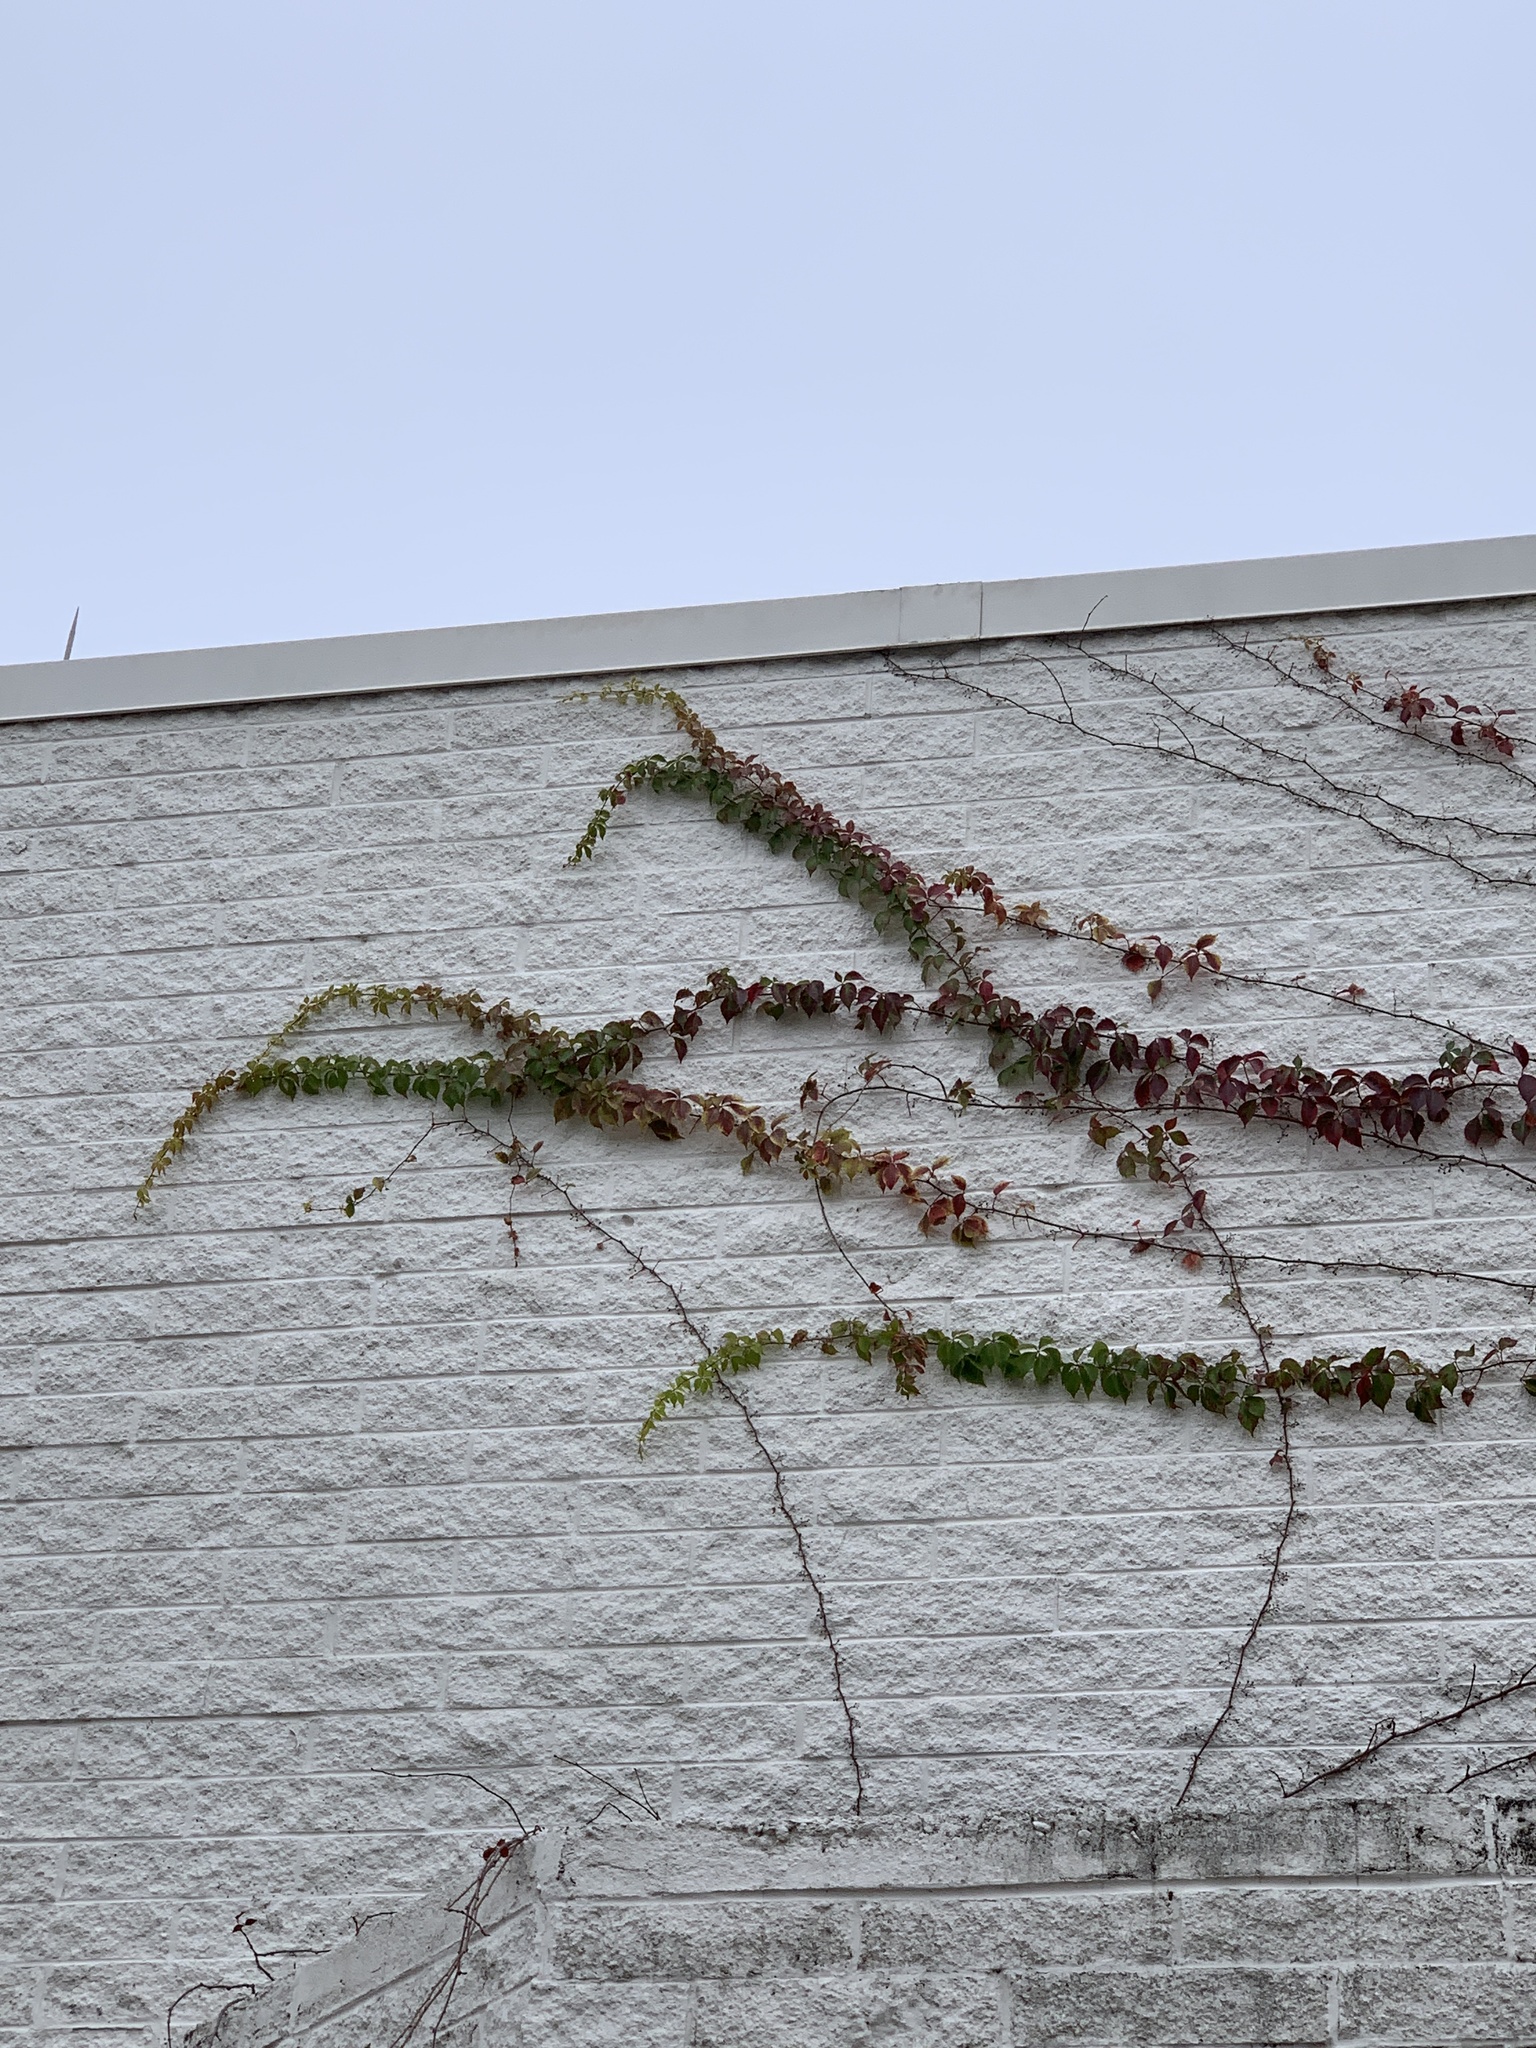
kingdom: Plantae
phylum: Tracheophyta
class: Magnoliopsida
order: Vitales
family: Vitaceae
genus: Parthenocissus
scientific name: Parthenocissus quinquefolia
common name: Virginia-creeper
